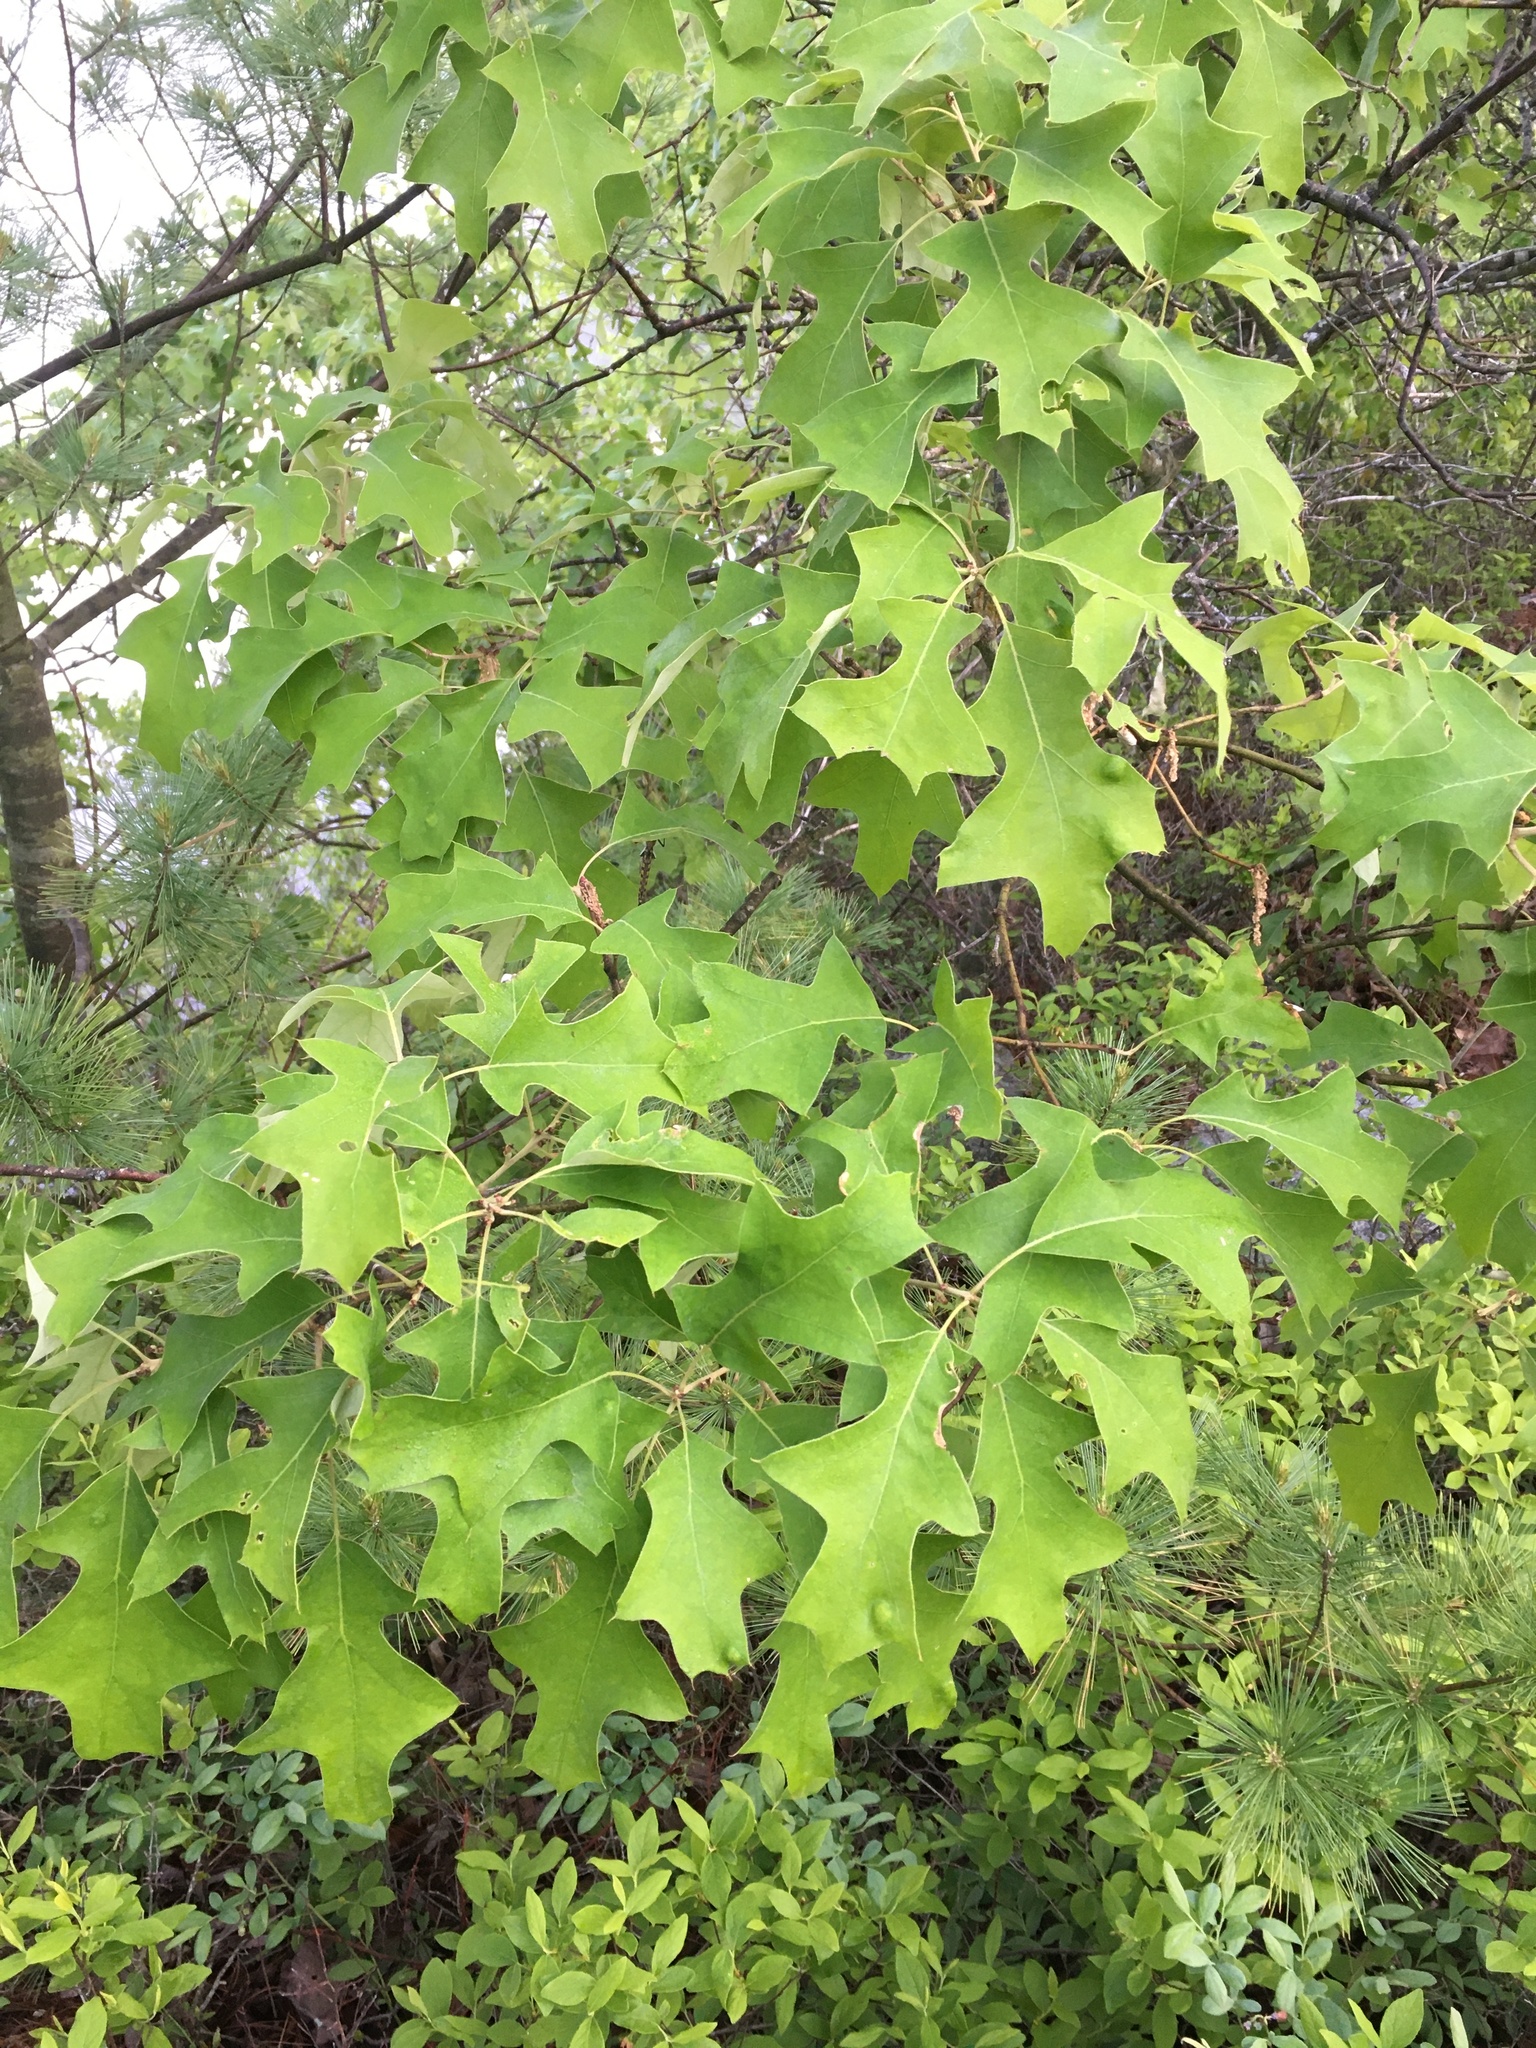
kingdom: Plantae
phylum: Tracheophyta
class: Magnoliopsida
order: Fagales
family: Fagaceae
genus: Quercus
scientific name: Quercus ilicifolia
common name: Bear oak
